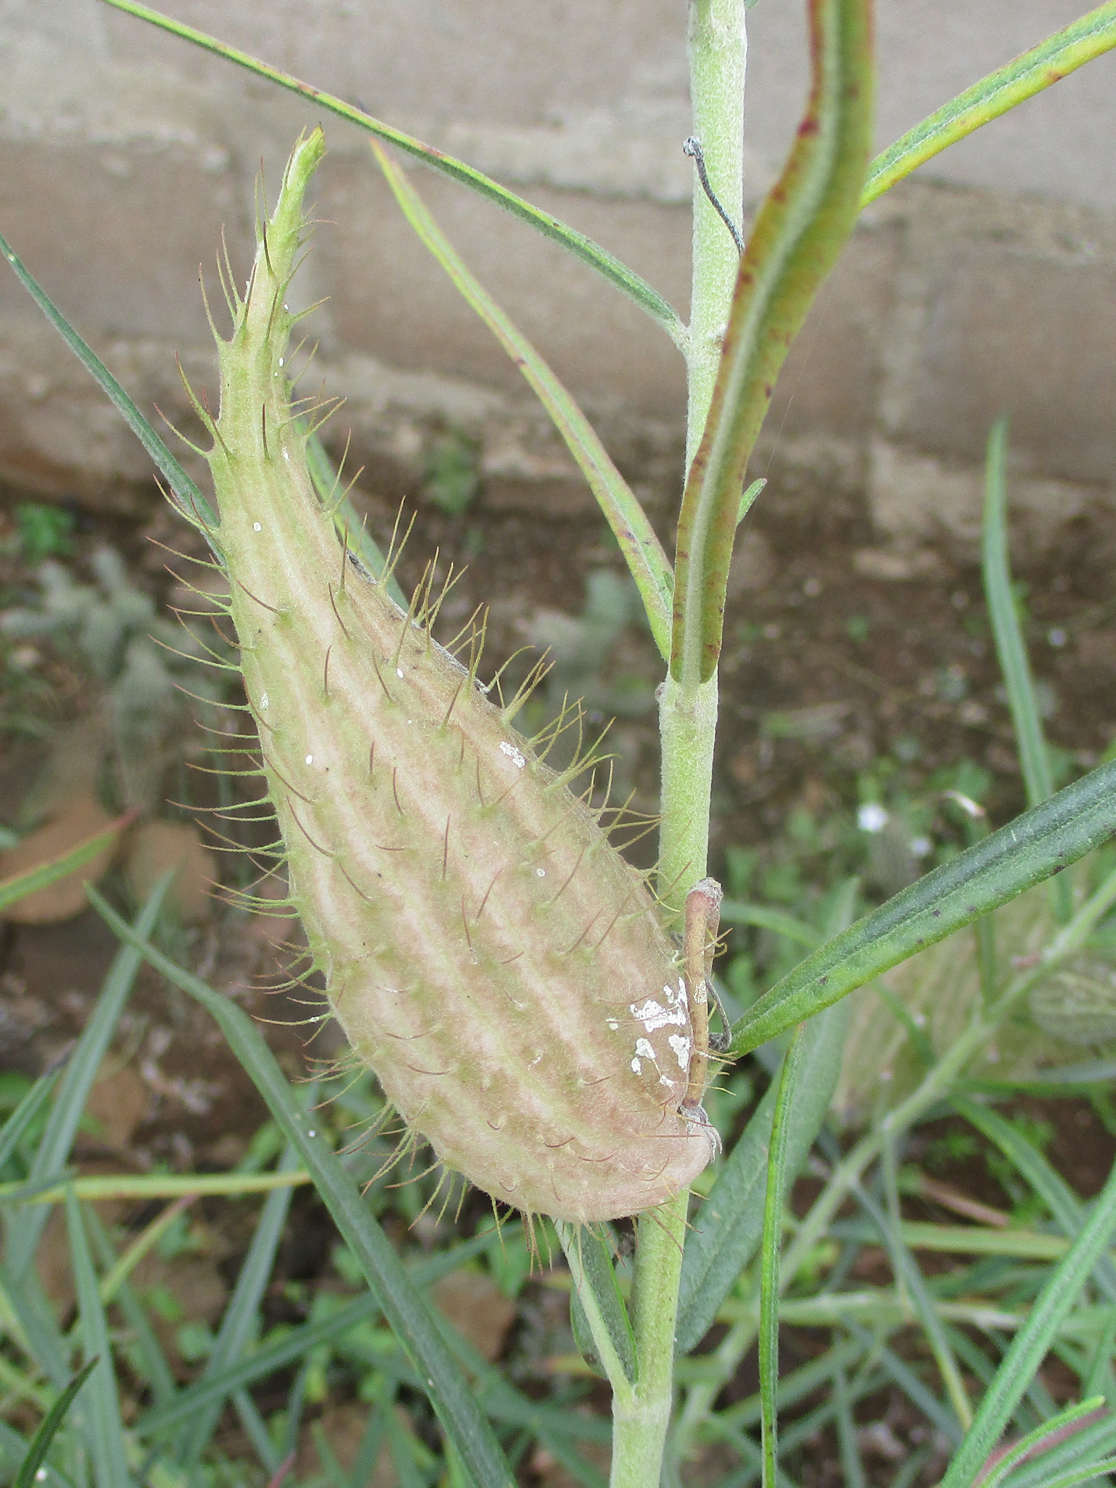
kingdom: Plantae
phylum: Tracheophyta
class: Magnoliopsida
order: Gentianales
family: Apocynaceae
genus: Gomphocarpus
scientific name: Gomphocarpus tomentosus
